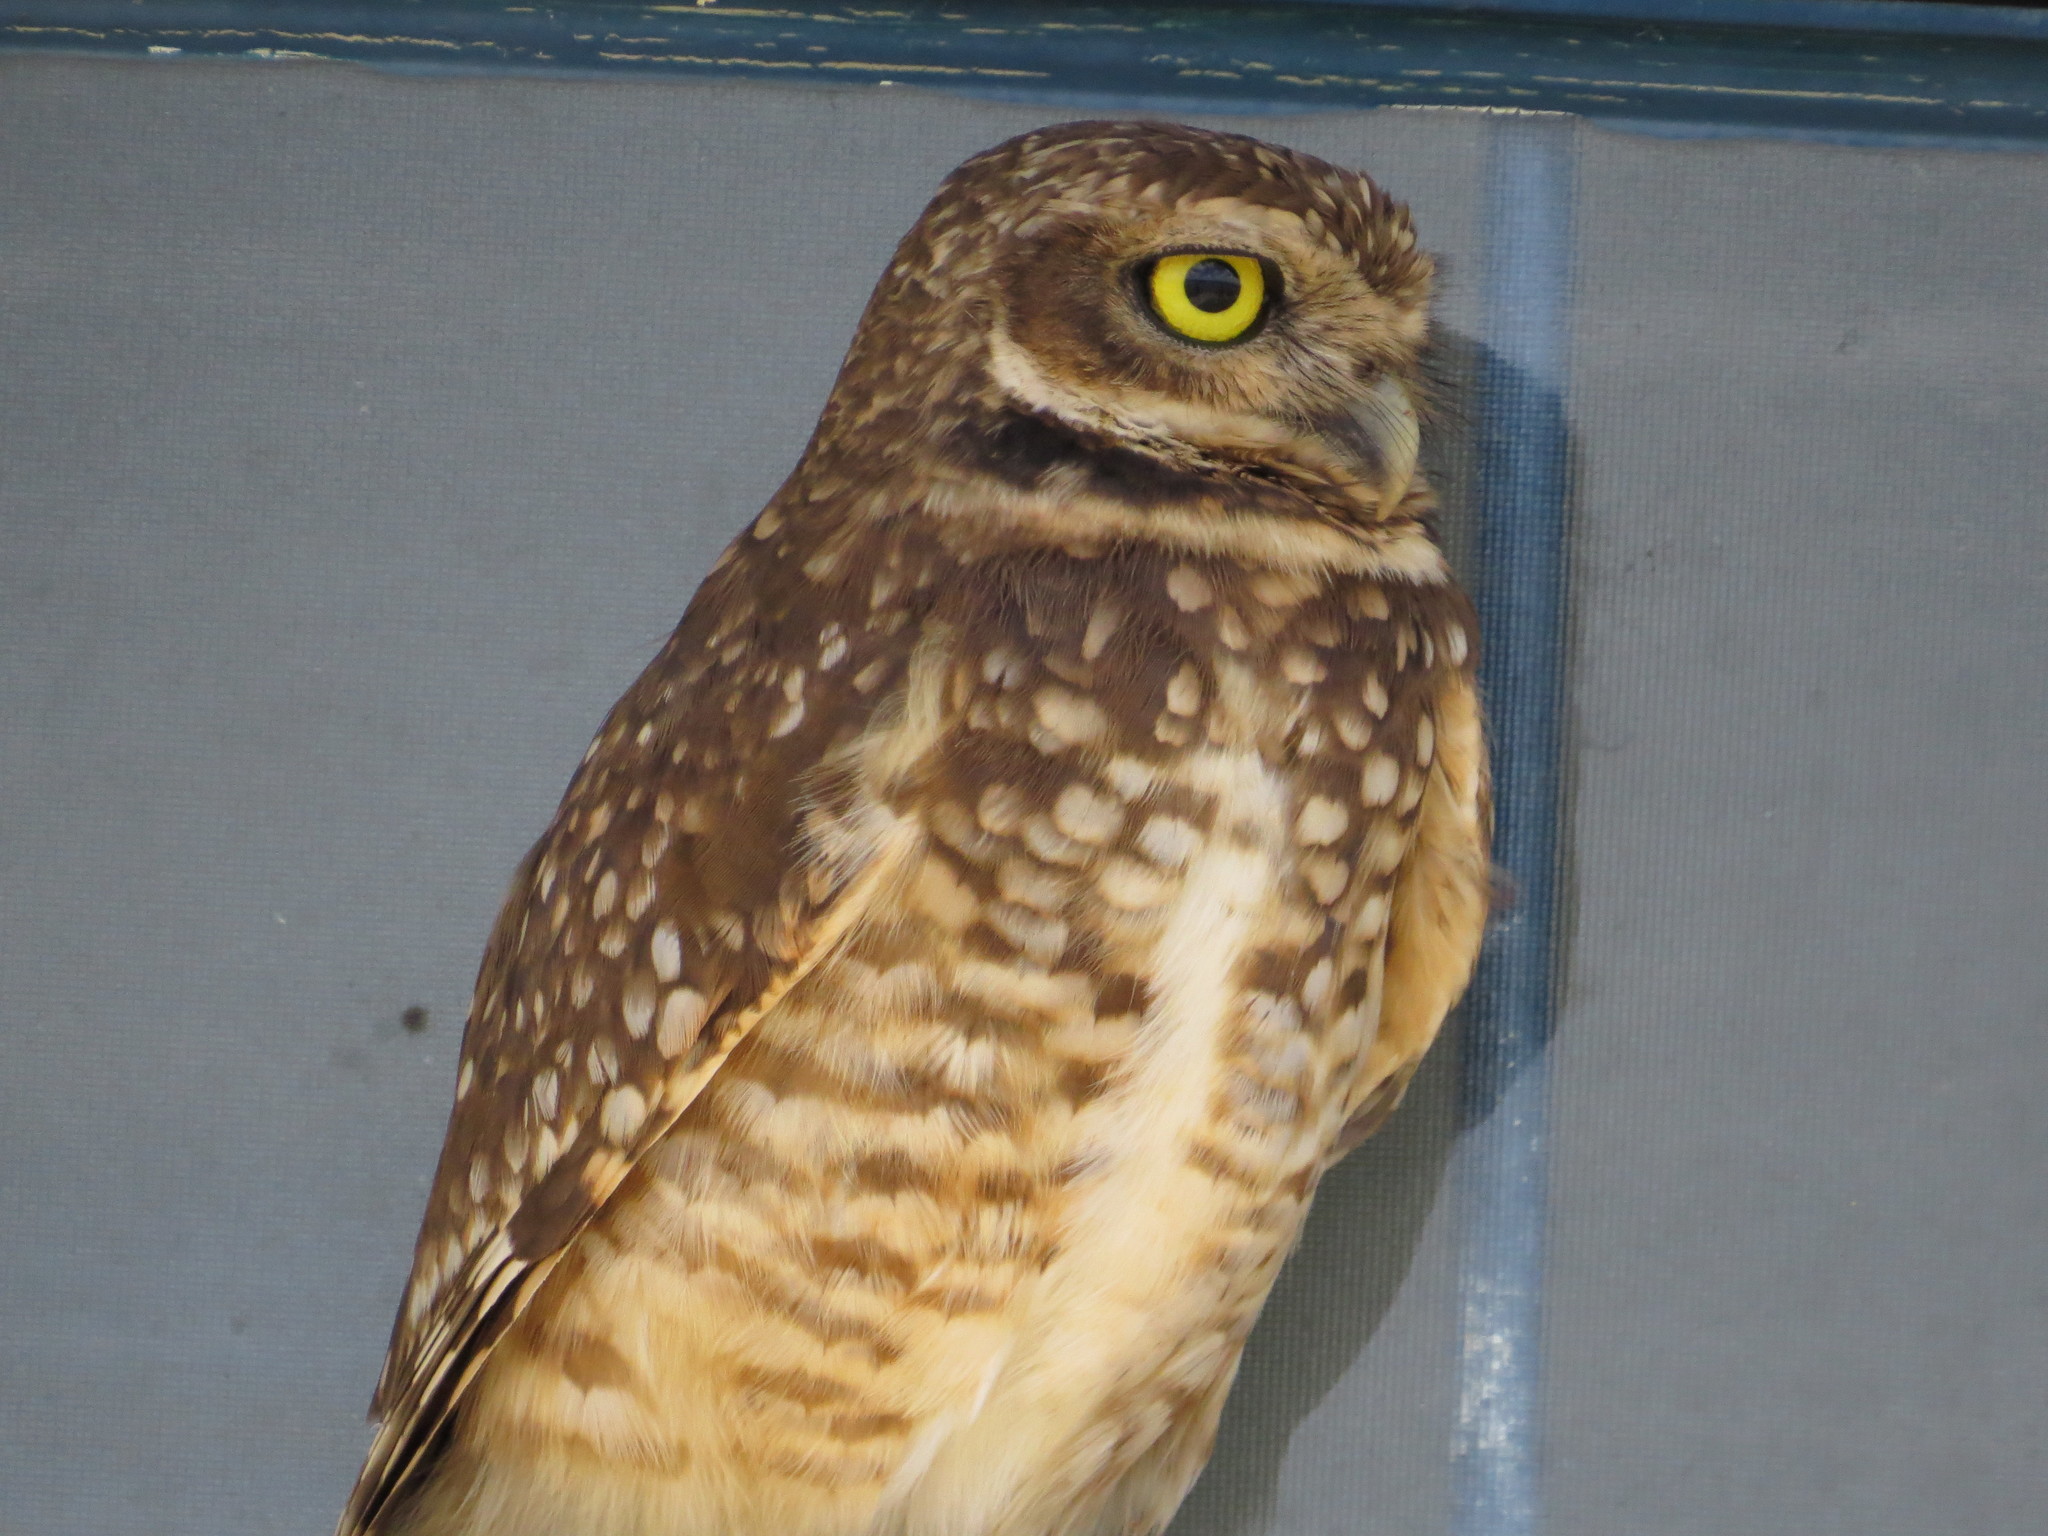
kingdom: Animalia
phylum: Chordata
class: Aves
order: Strigiformes
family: Strigidae
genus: Athene
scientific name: Athene cunicularia
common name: Burrowing owl
